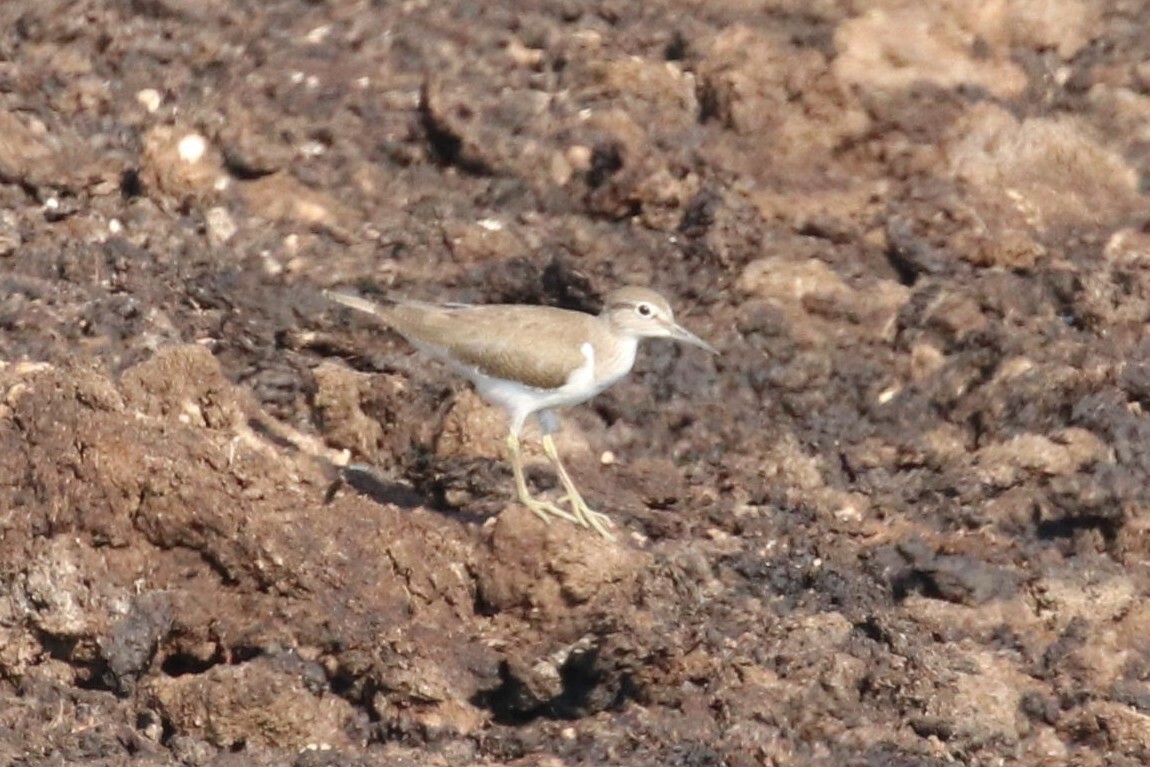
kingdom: Animalia
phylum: Chordata
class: Aves
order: Charadriiformes
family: Scolopacidae
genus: Actitis
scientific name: Actitis hypoleucos
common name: Common sandpiper
